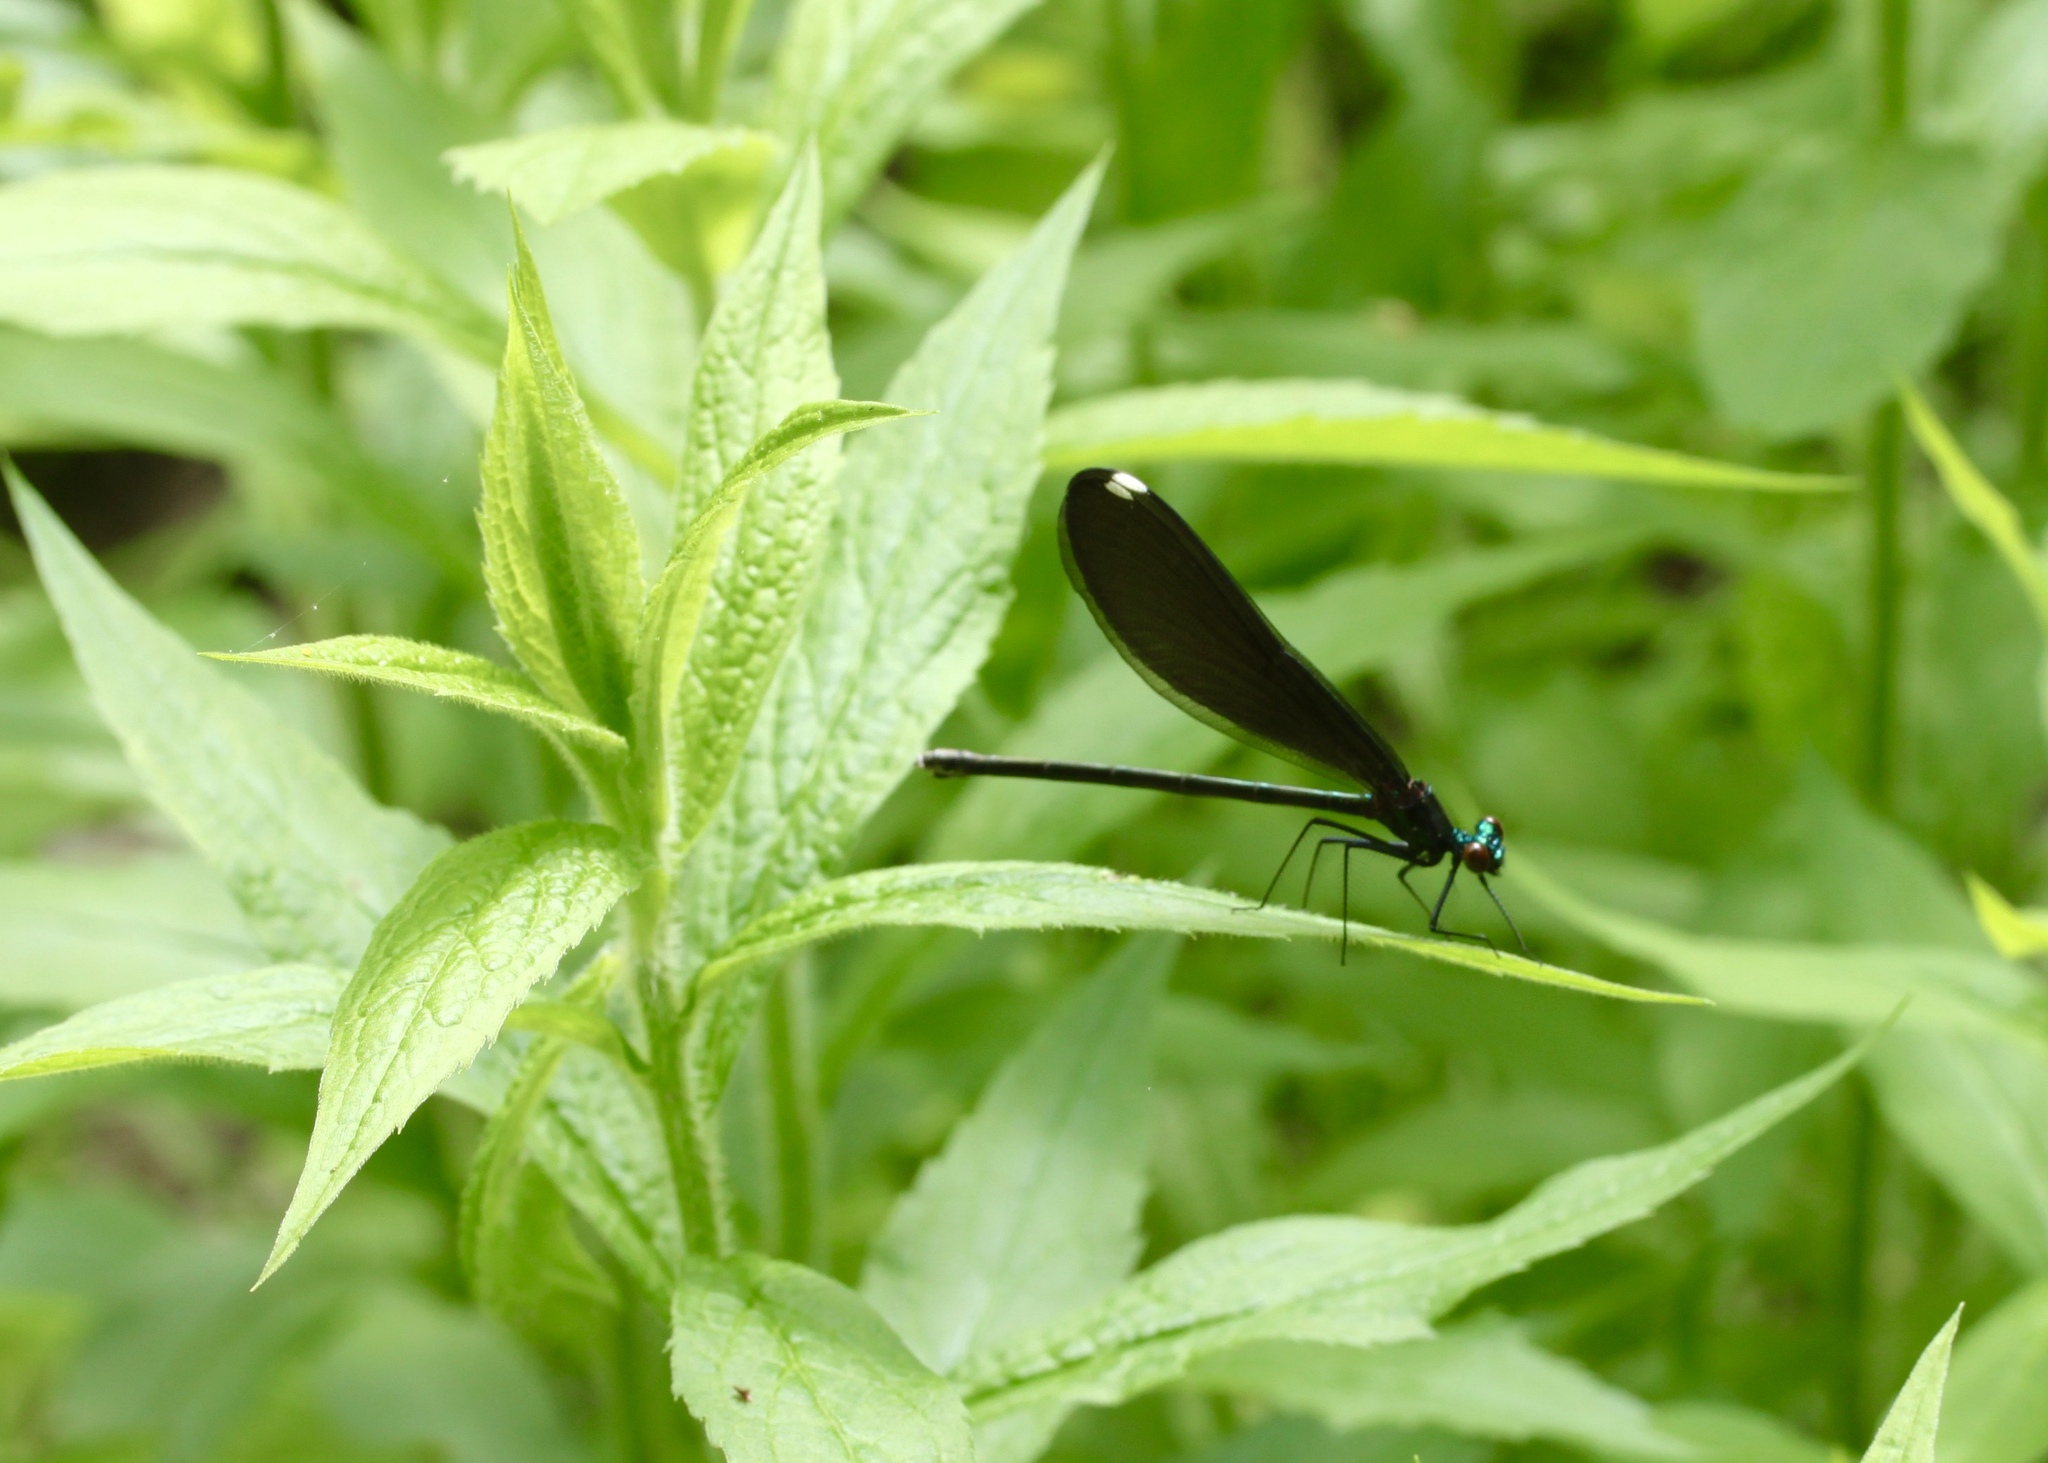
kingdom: Animalia
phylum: Arthropoda
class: Insecta
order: Odonata
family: Calopterygidae
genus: Calopteryx
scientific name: Calopteryx maculata
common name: Ebony jewelwing
